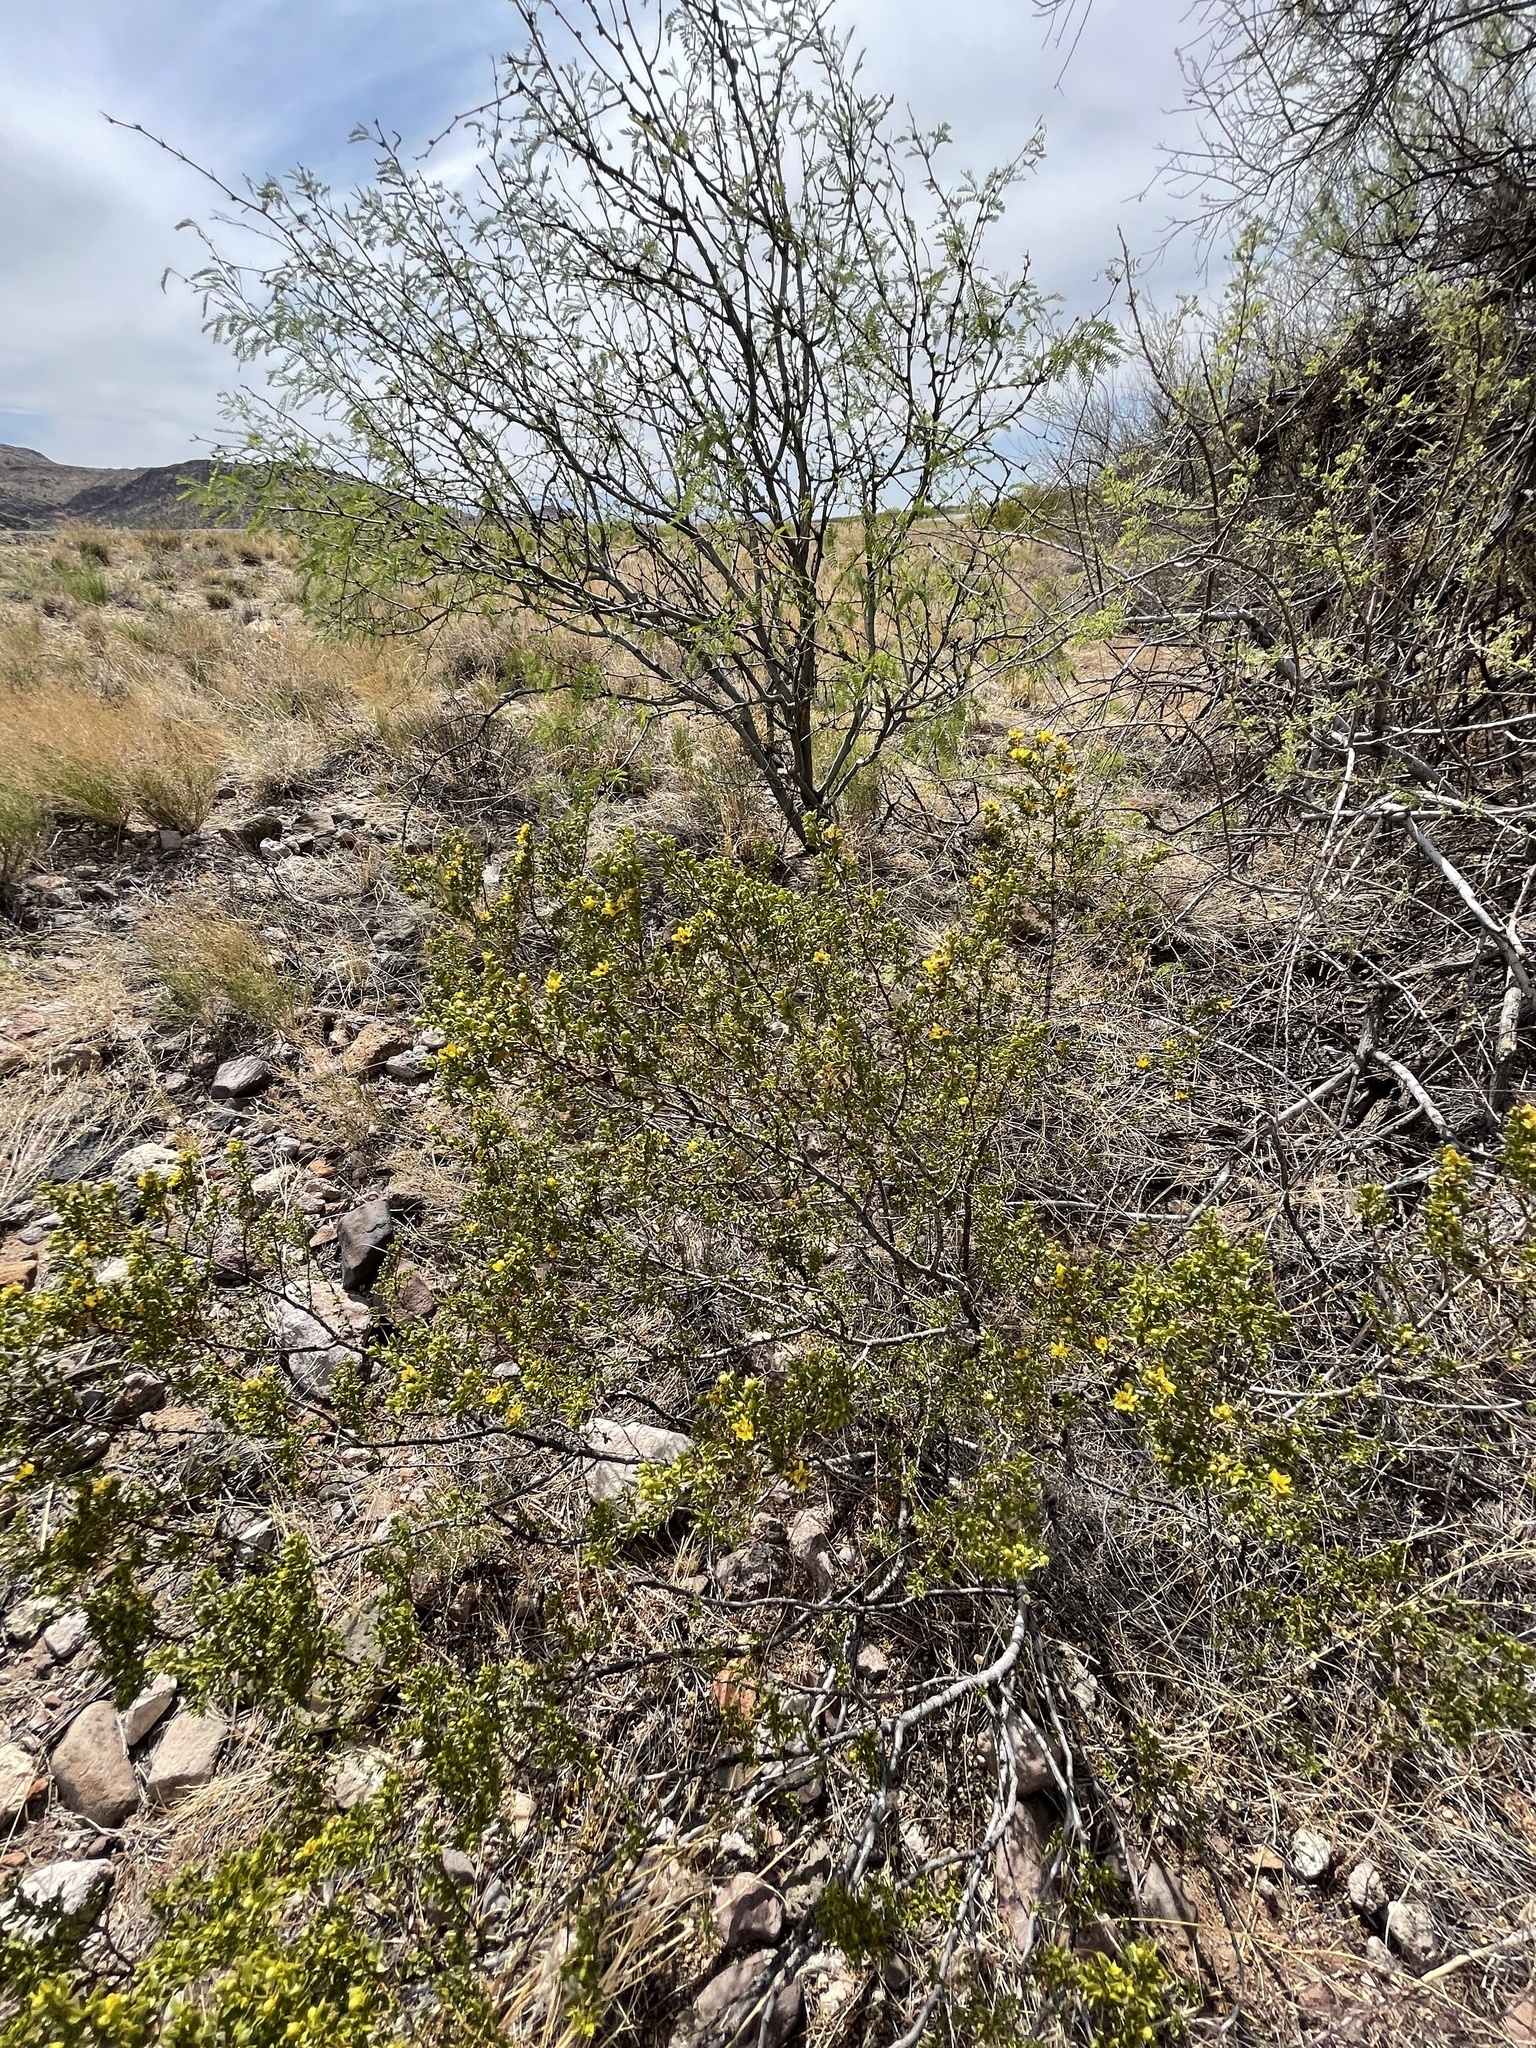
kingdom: Plantae
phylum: Tracheophyta
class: Magnoliopsida
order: Zygophyllales
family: Zygophyllaceae
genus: Larrea
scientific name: Larrea tridentata
